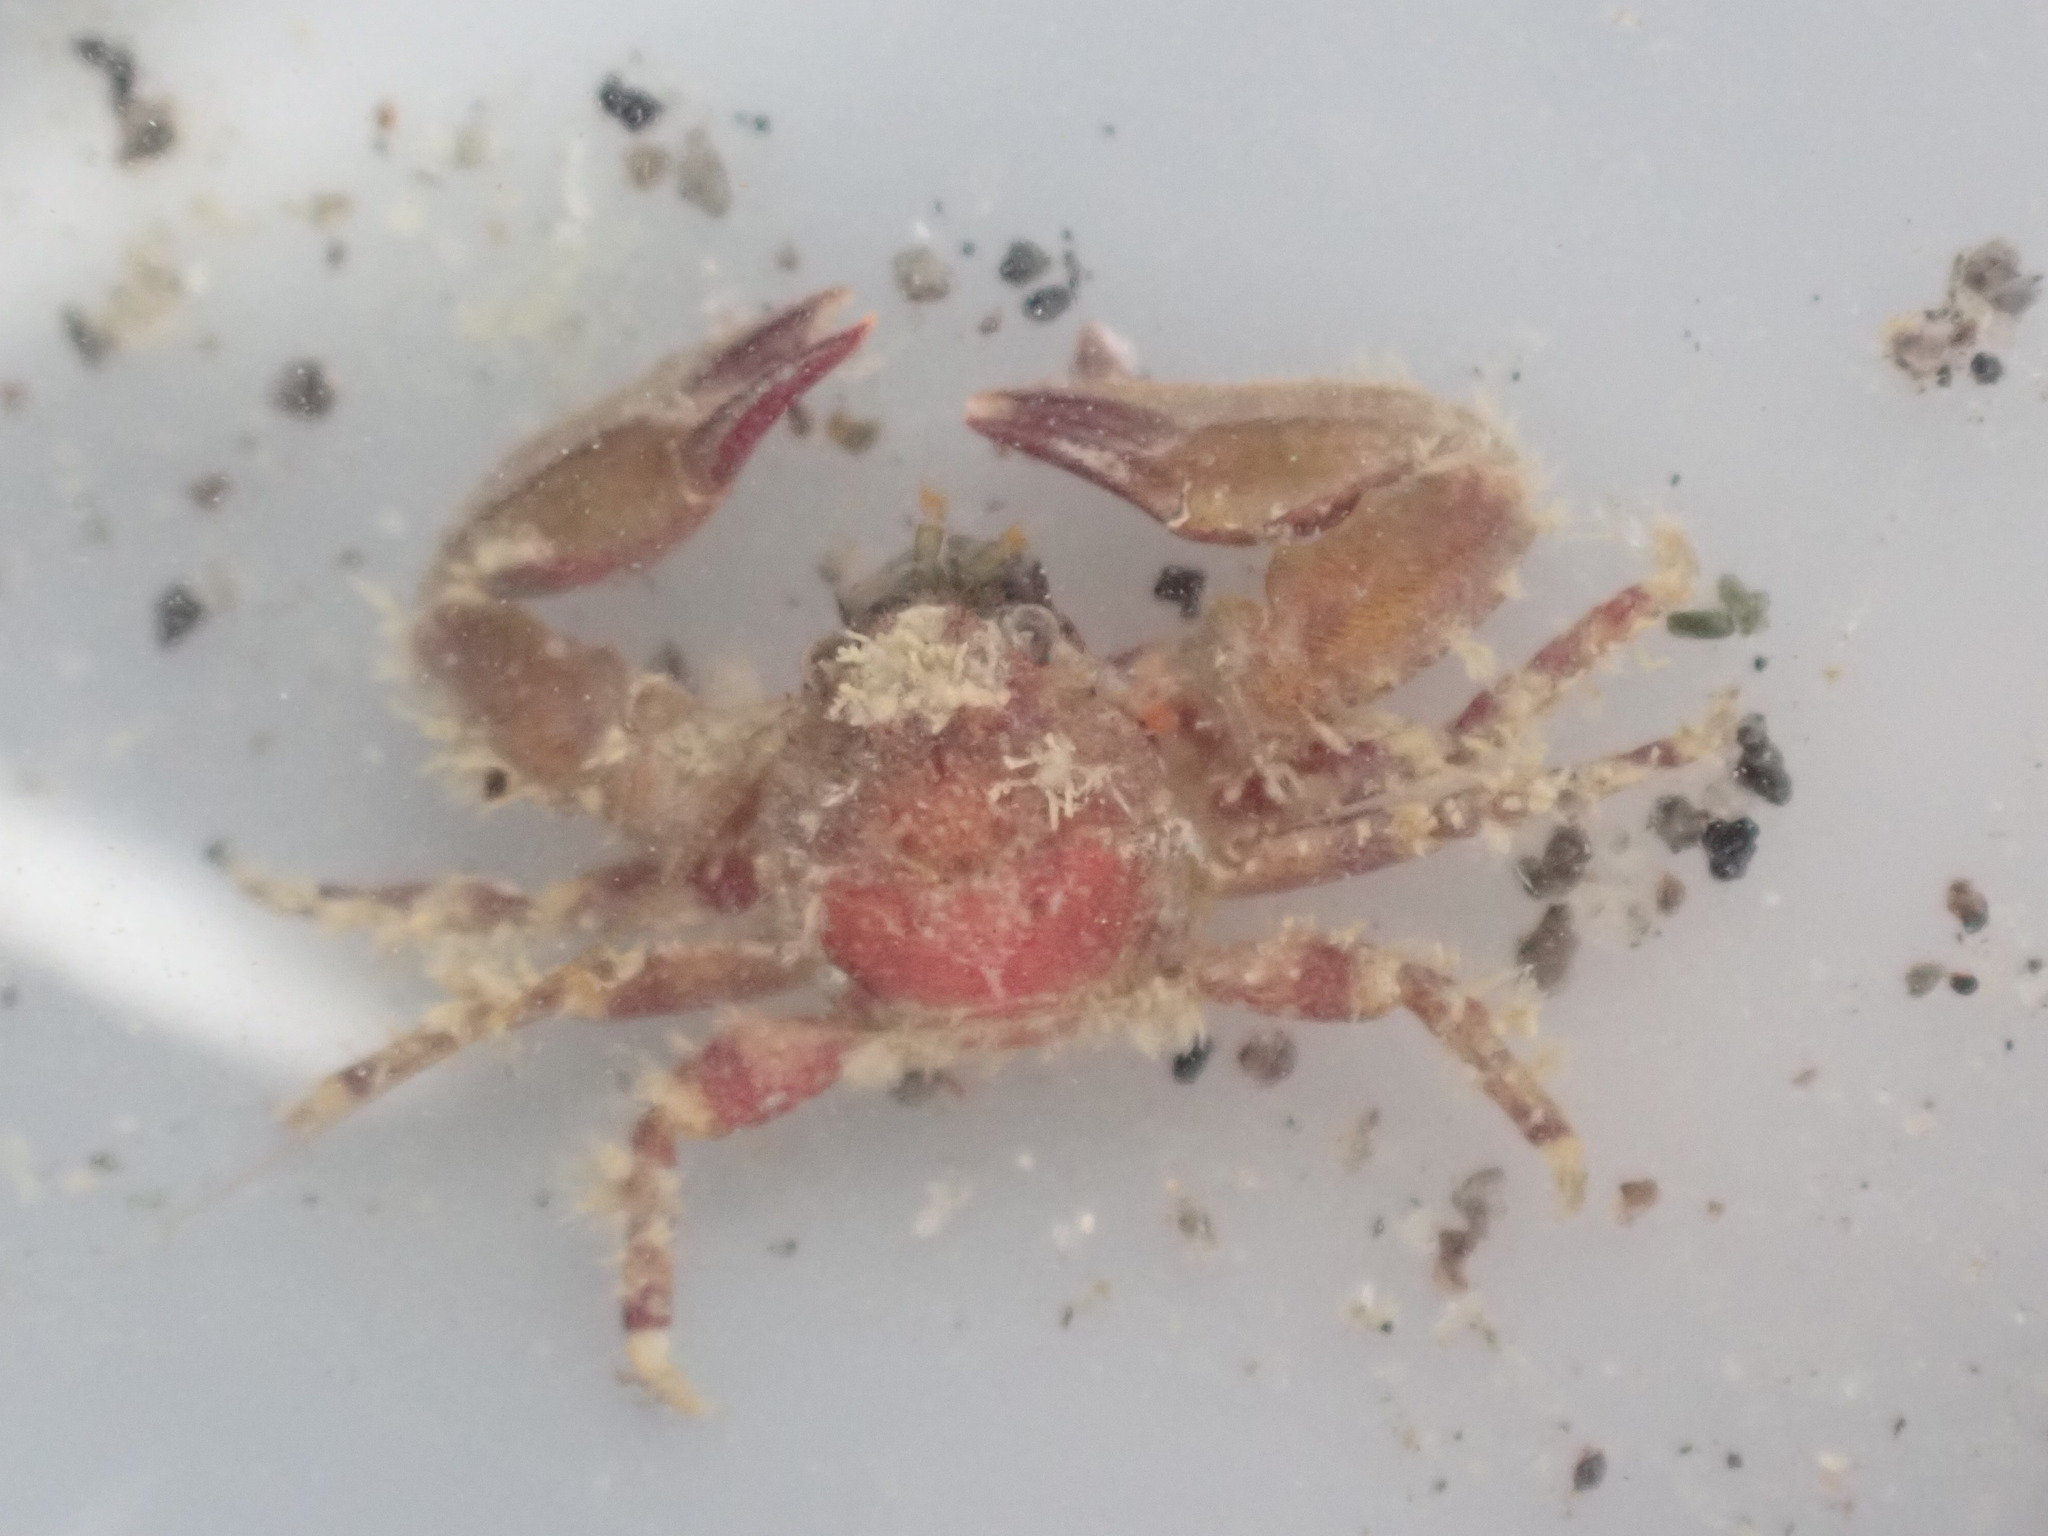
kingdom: Animalia
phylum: Arthropoda
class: Malacostraca
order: Decapoda
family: Porcellanidae
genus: Petrolisthes
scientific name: Petrolisthes novaezelandiae
